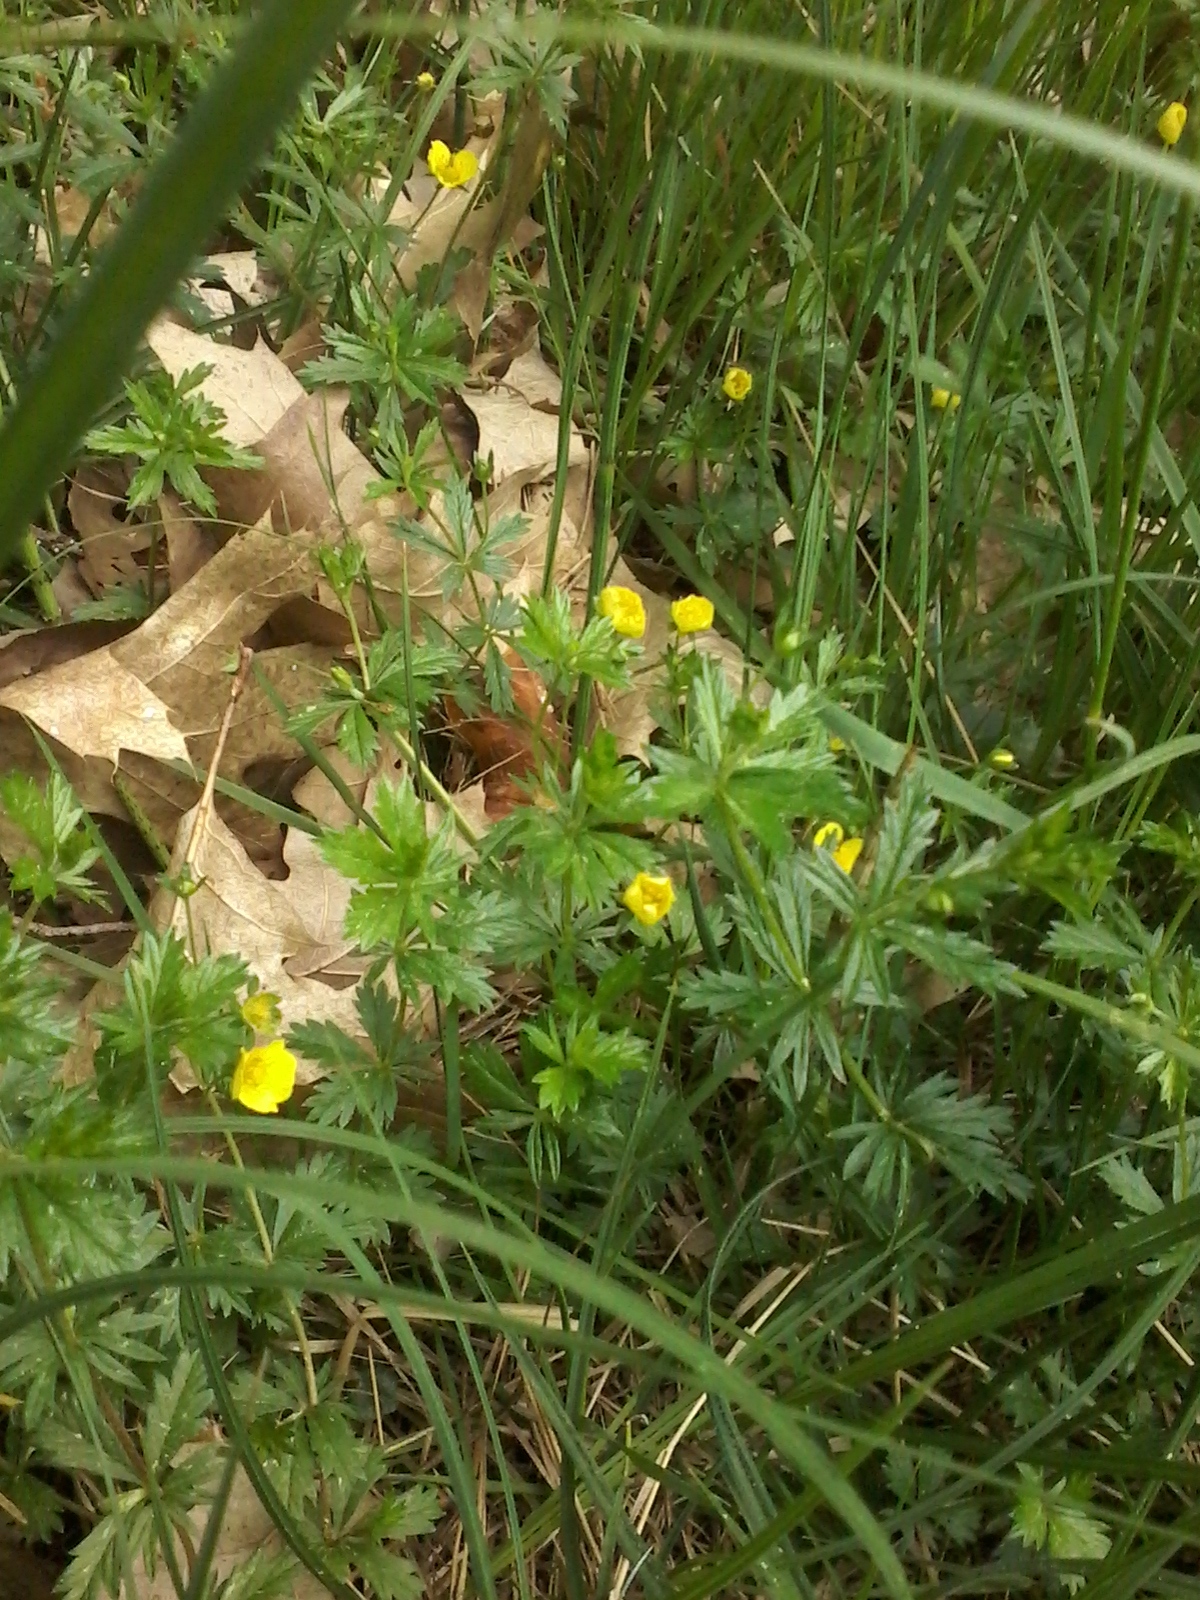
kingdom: Plantae
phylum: Tracheophyta
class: Magnoliopsida
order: Rosales
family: Rosaceae
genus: Potentilla
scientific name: Potentilla erecta
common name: Tormentil
